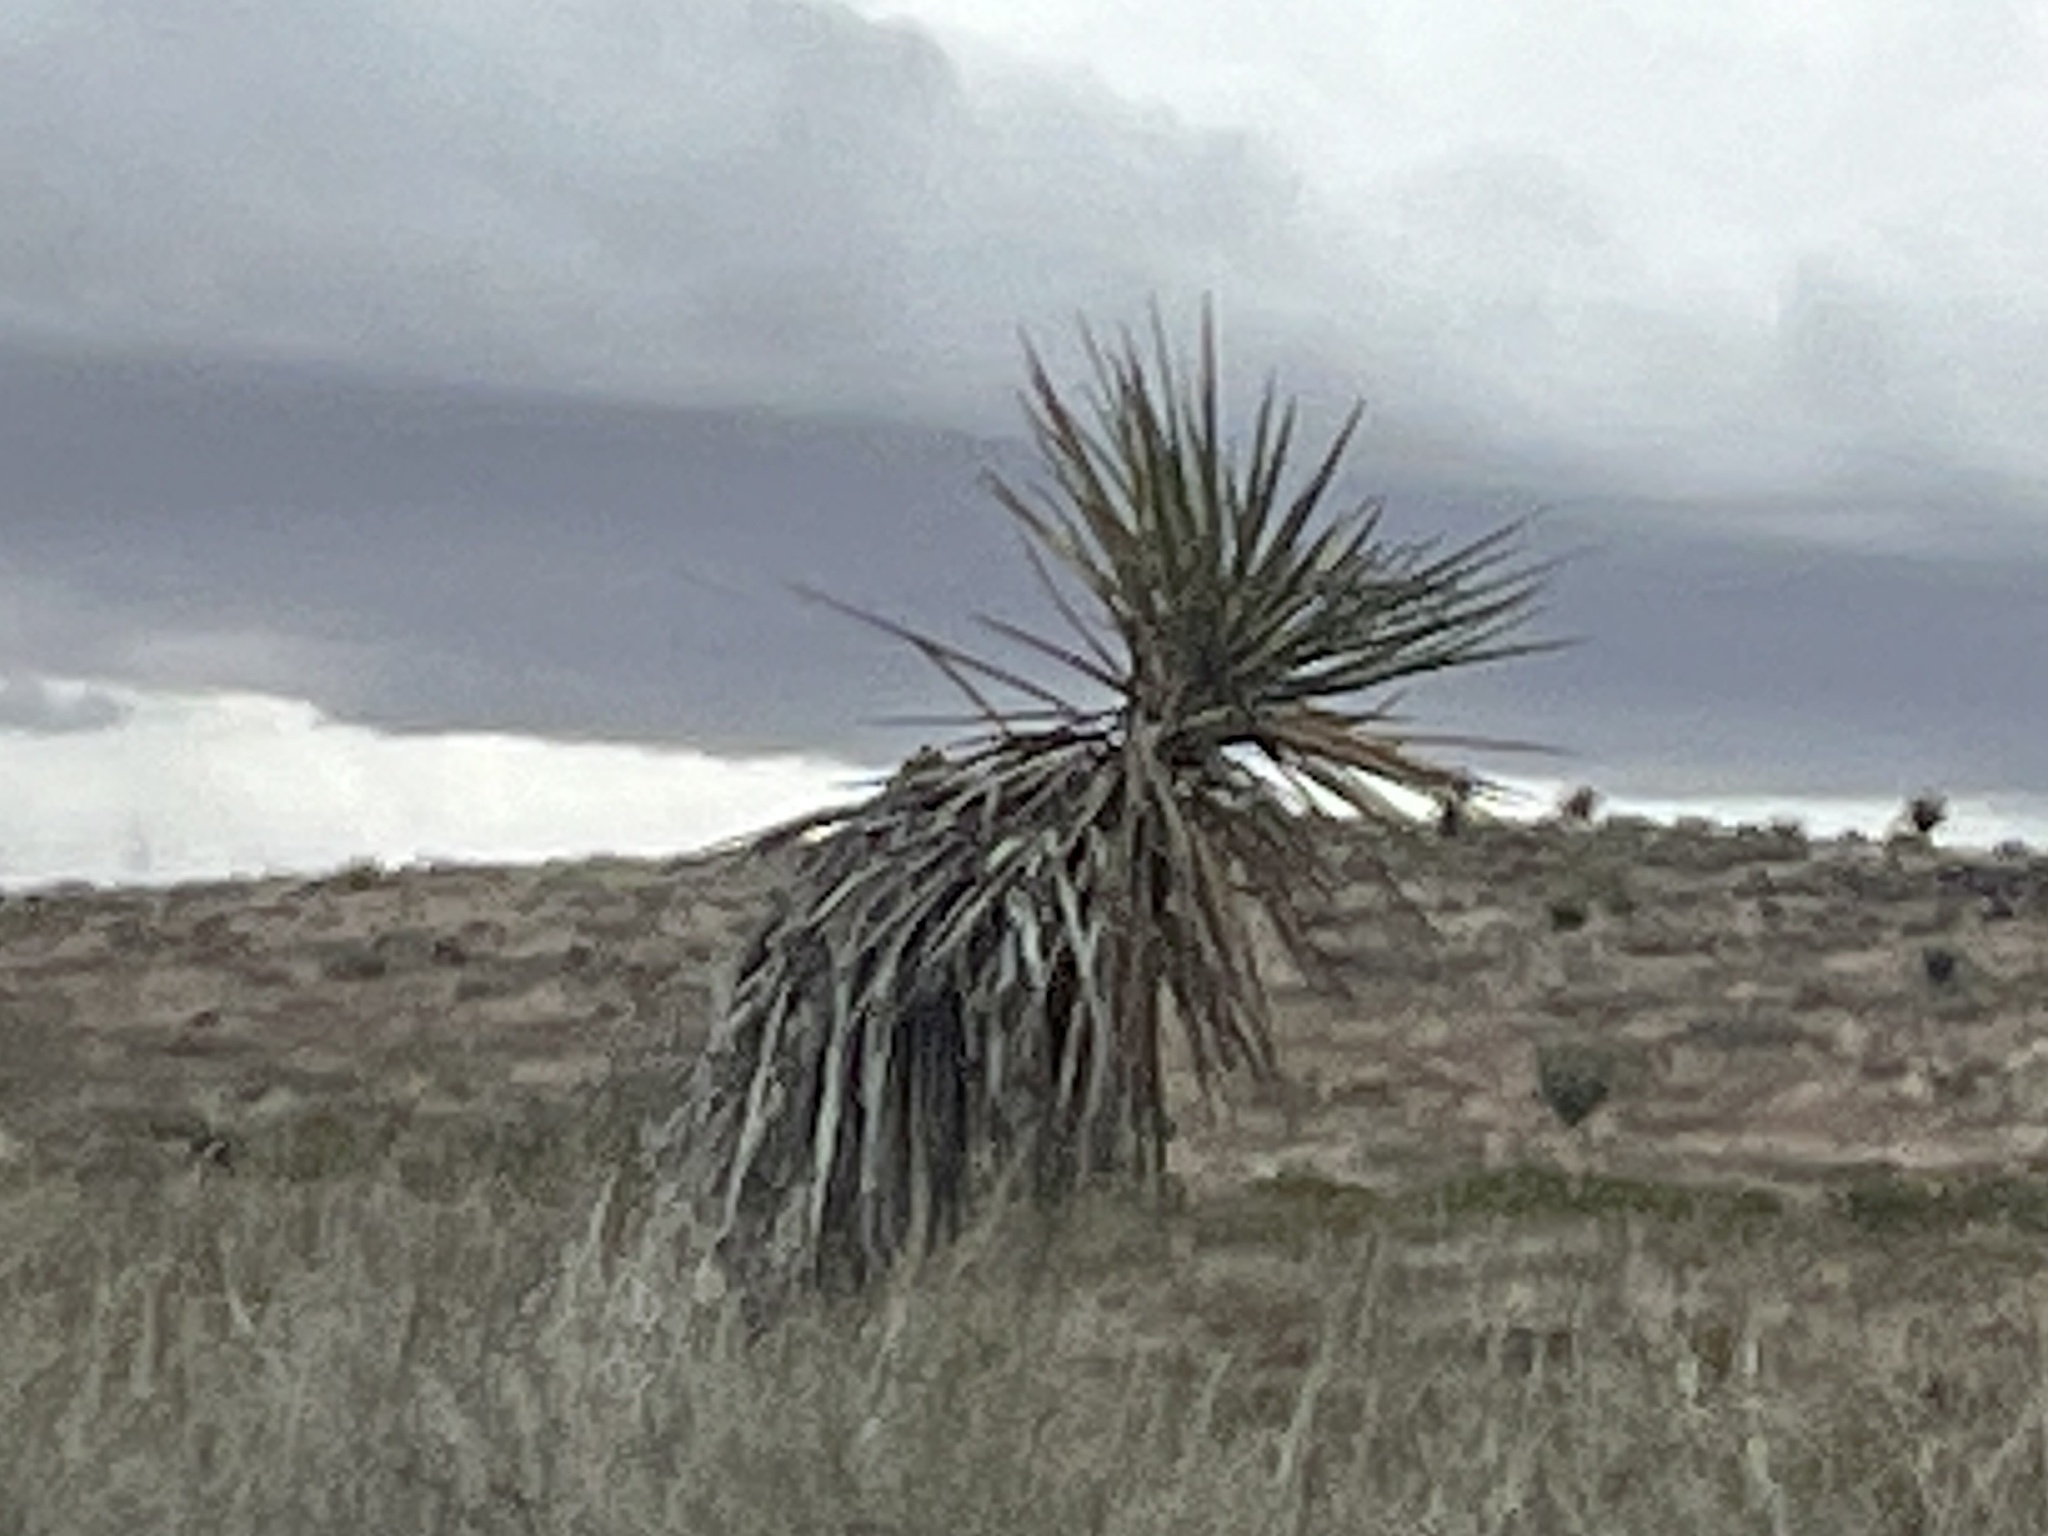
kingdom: Plantae
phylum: Tracheophyta
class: Liliopsida
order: Asparagales
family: Asparagaceae
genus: Yucca
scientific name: Yucca treculiana
